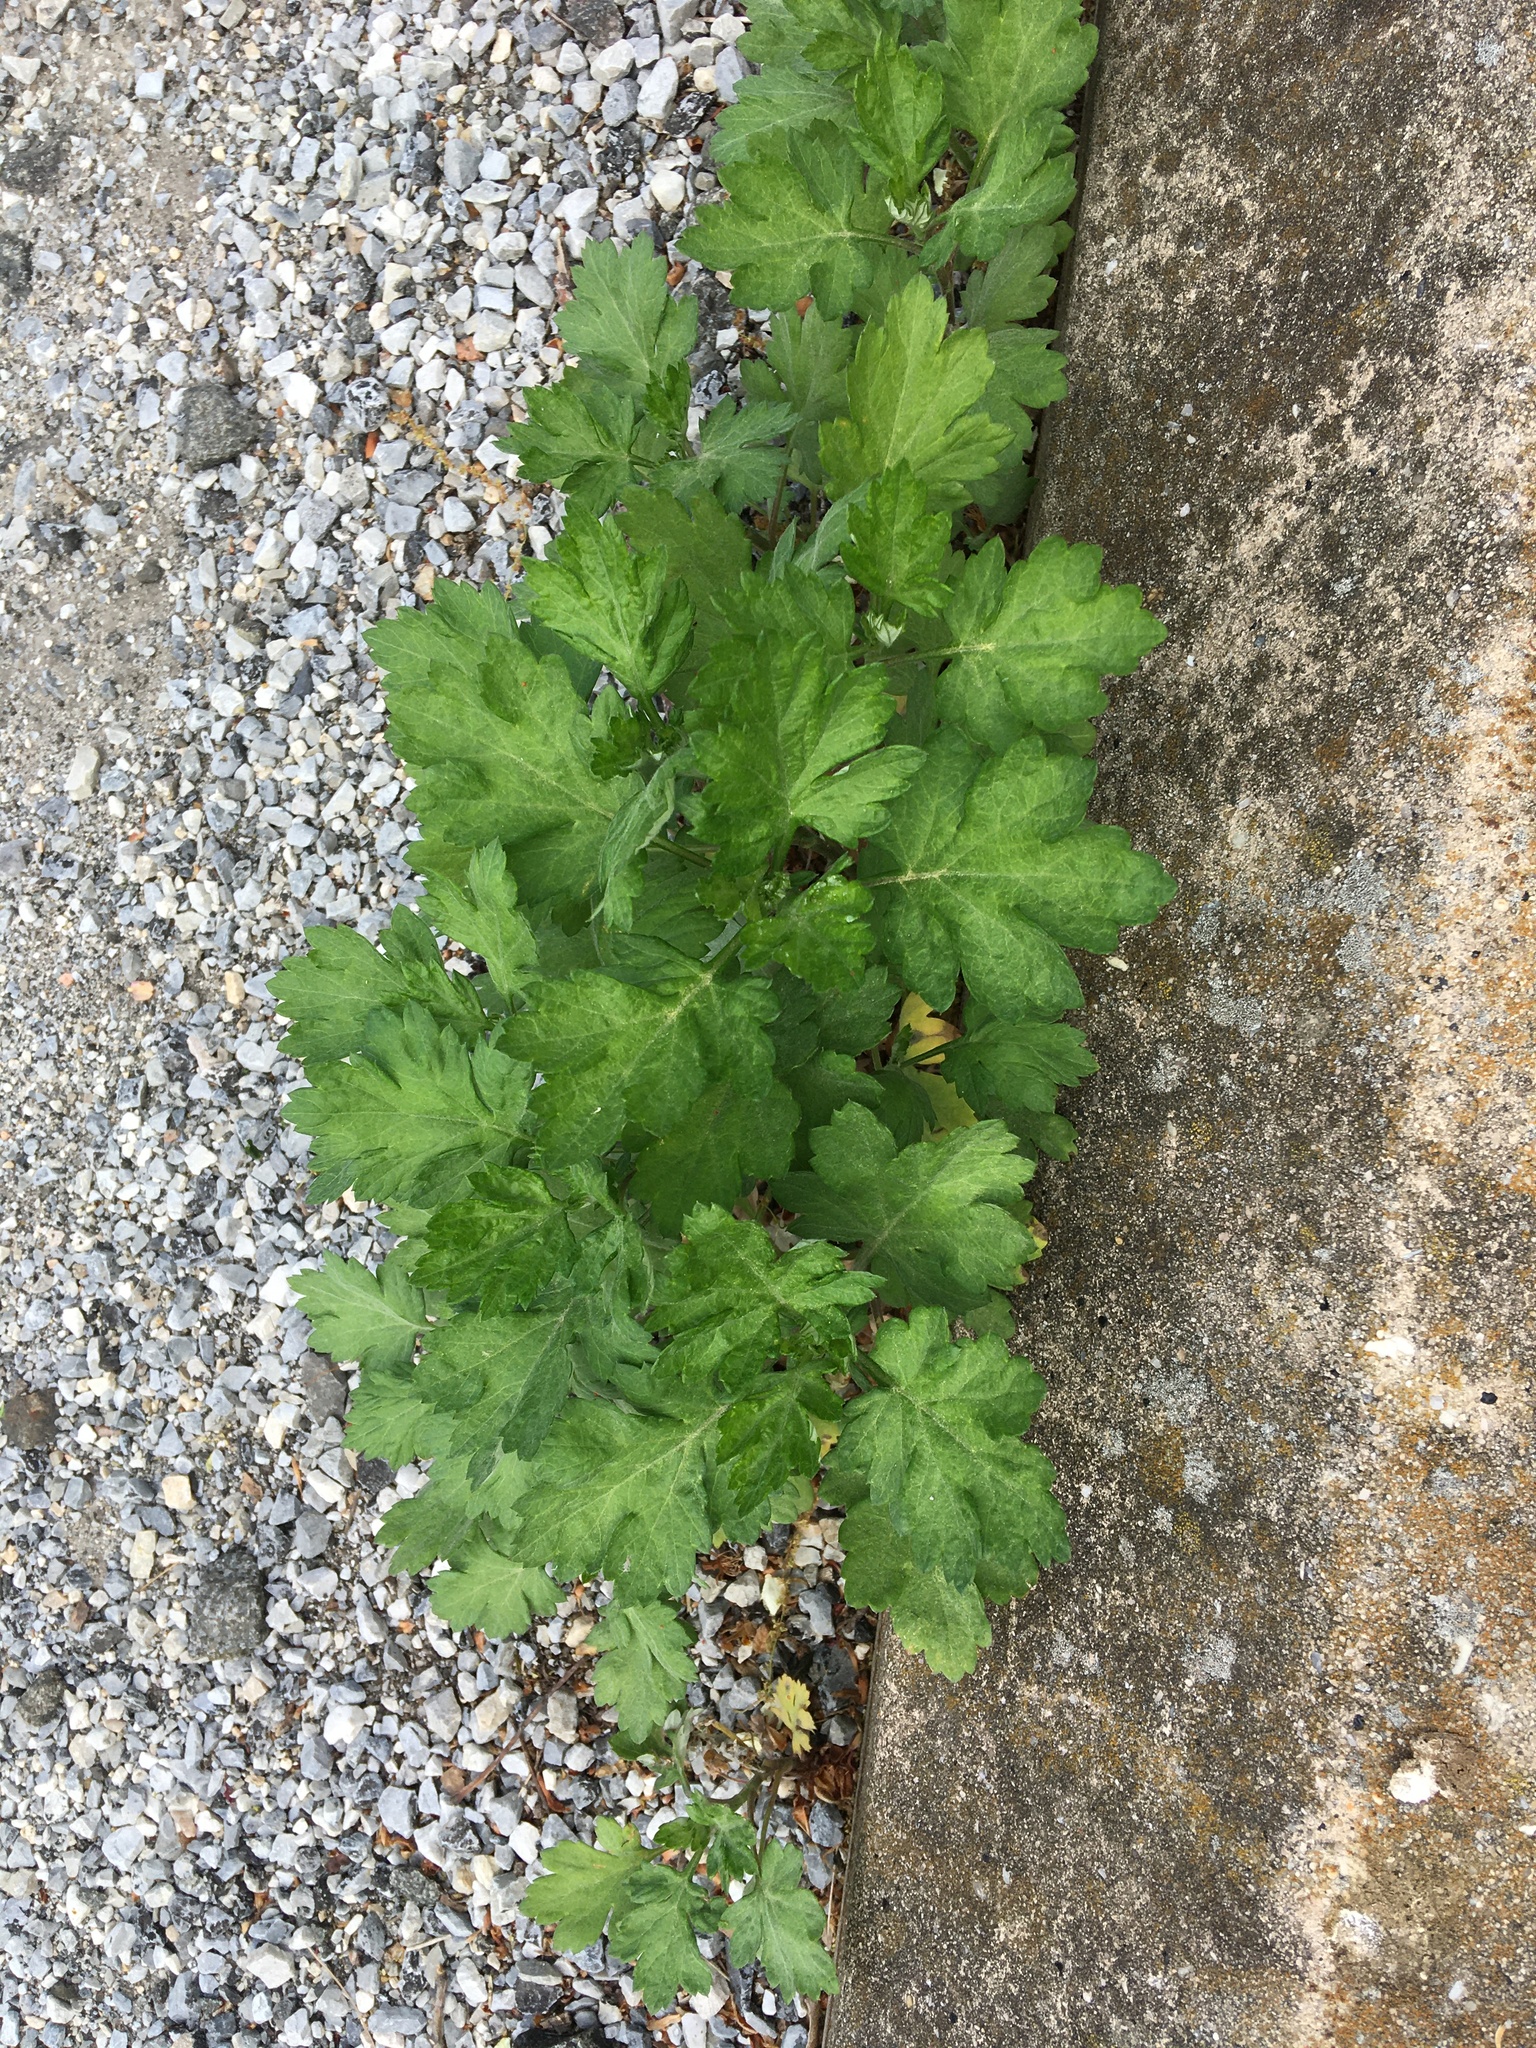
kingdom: Plantae
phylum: Tracheophyta
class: Magnoliopsida
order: Asterales
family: Asteraceae
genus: Artemisia
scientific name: Artemisia vulgaris
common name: Mugwort
